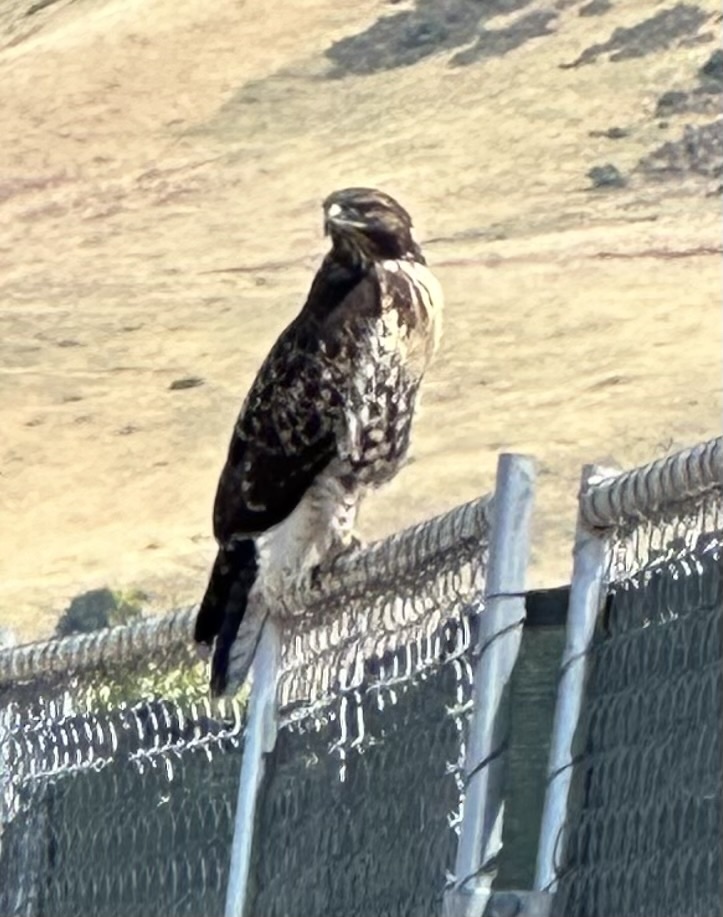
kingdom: Animalia
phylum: Chordata
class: Aves
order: Accipitriformes
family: Accipitridae
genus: Buteo
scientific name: Buteo jamaicensis
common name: Red-tailed hawk
